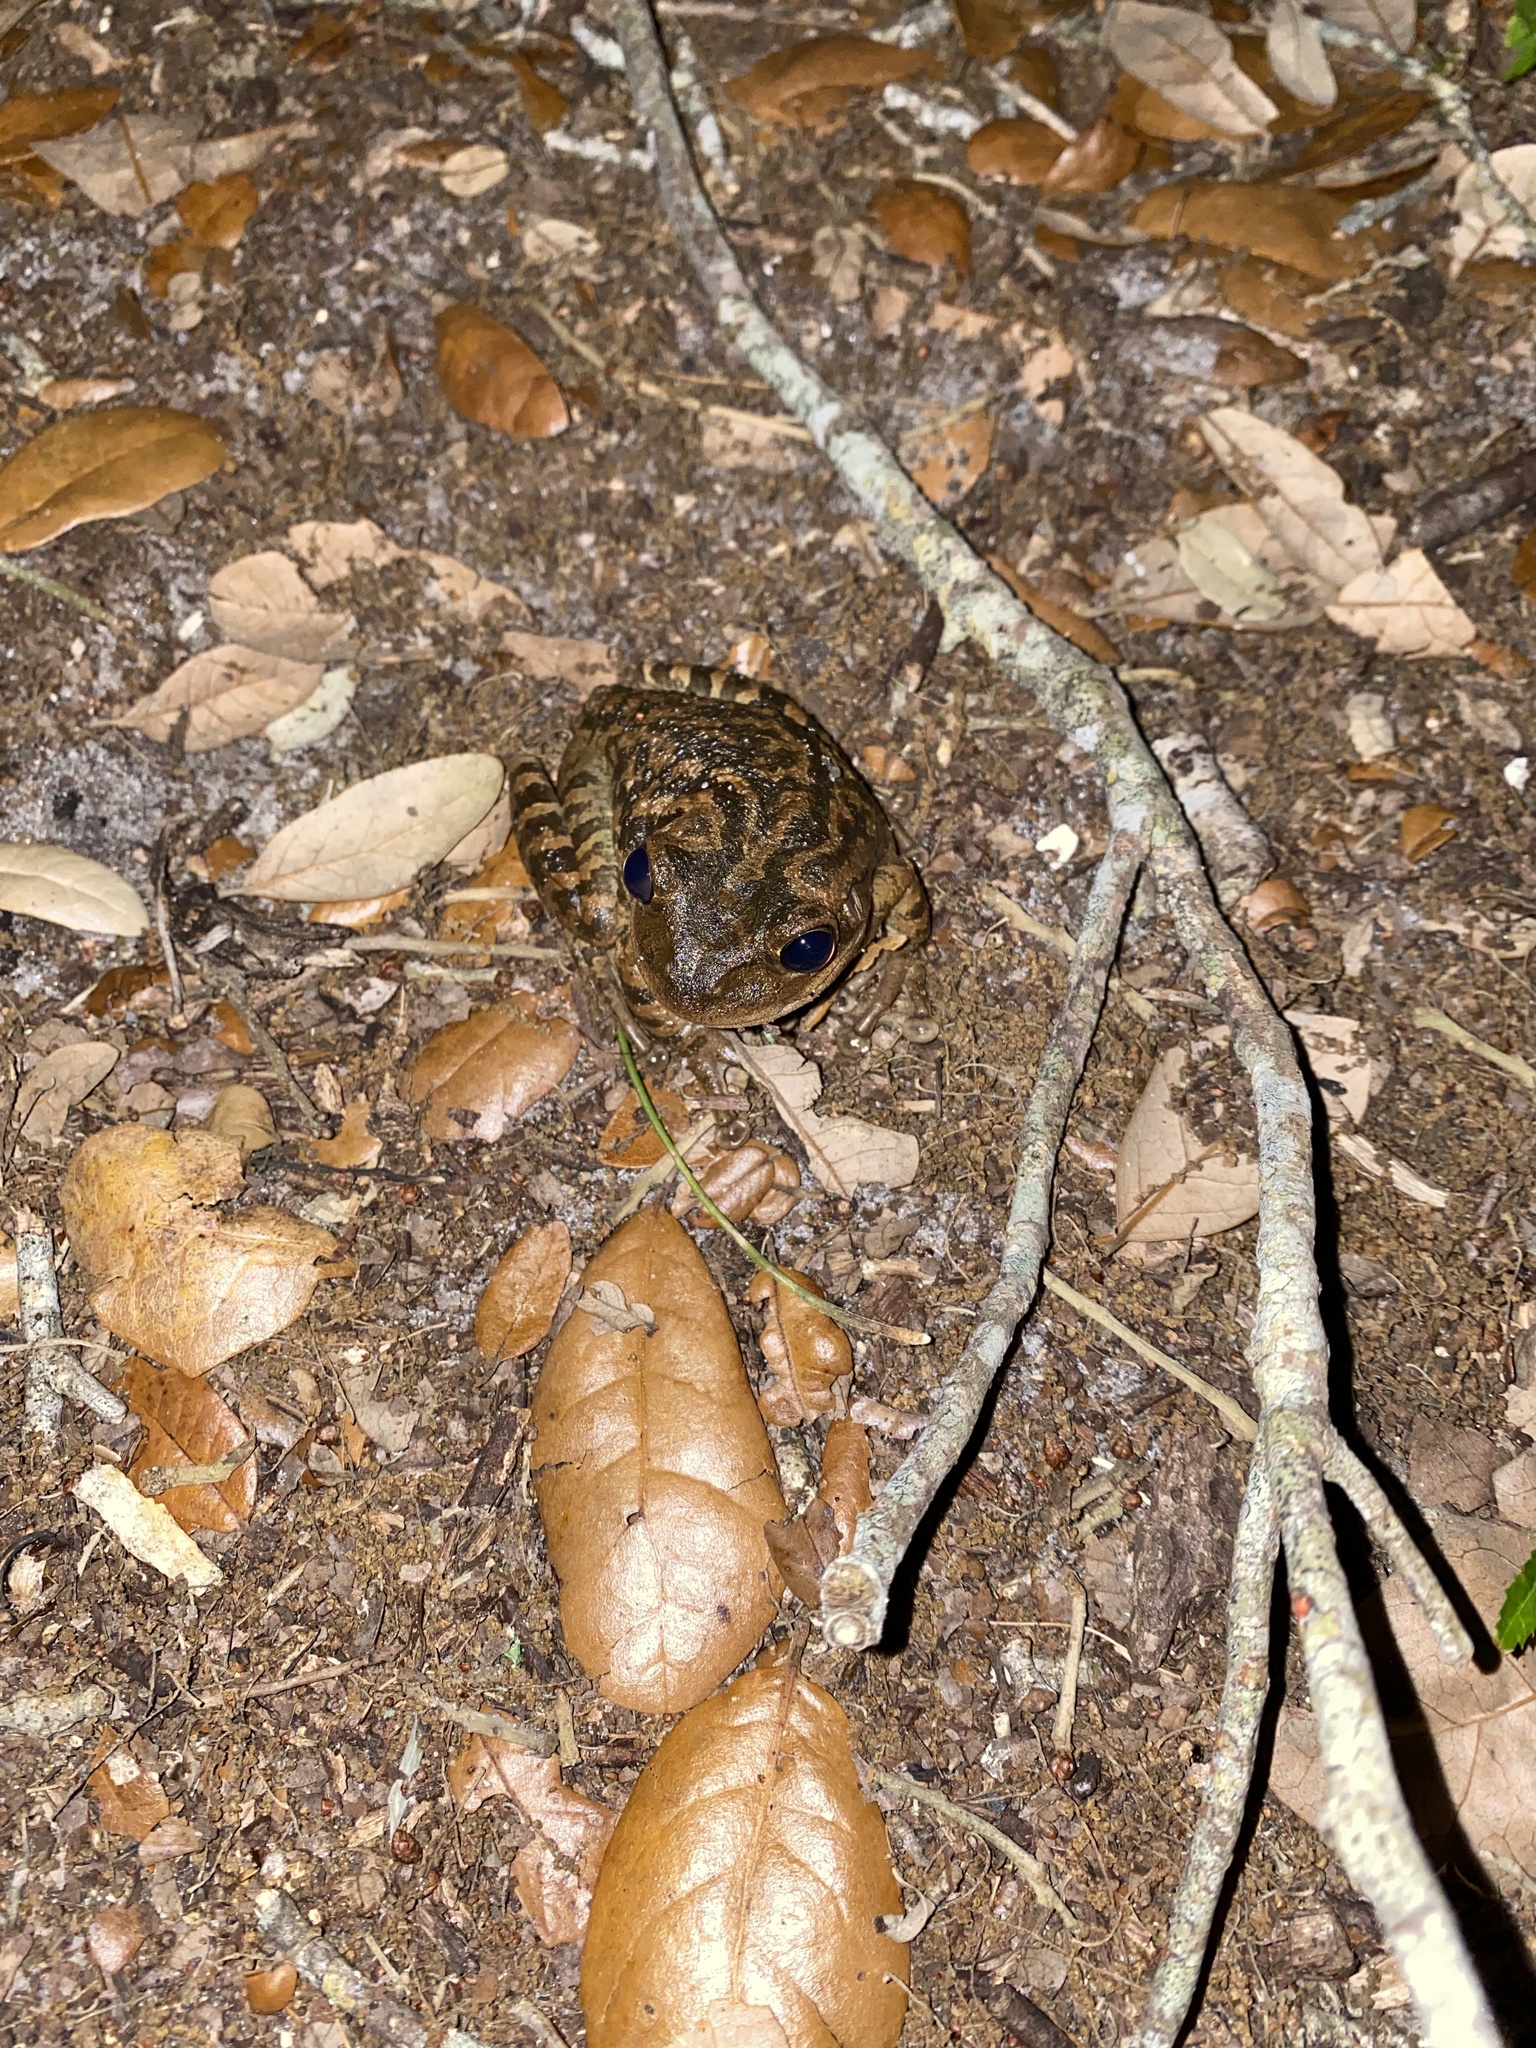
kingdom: Animalia
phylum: Chordata
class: Amphibia
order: Anura
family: Hylidae
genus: Osteopilus
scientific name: Osteopilus septentrionalis
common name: Cuban treefrog
